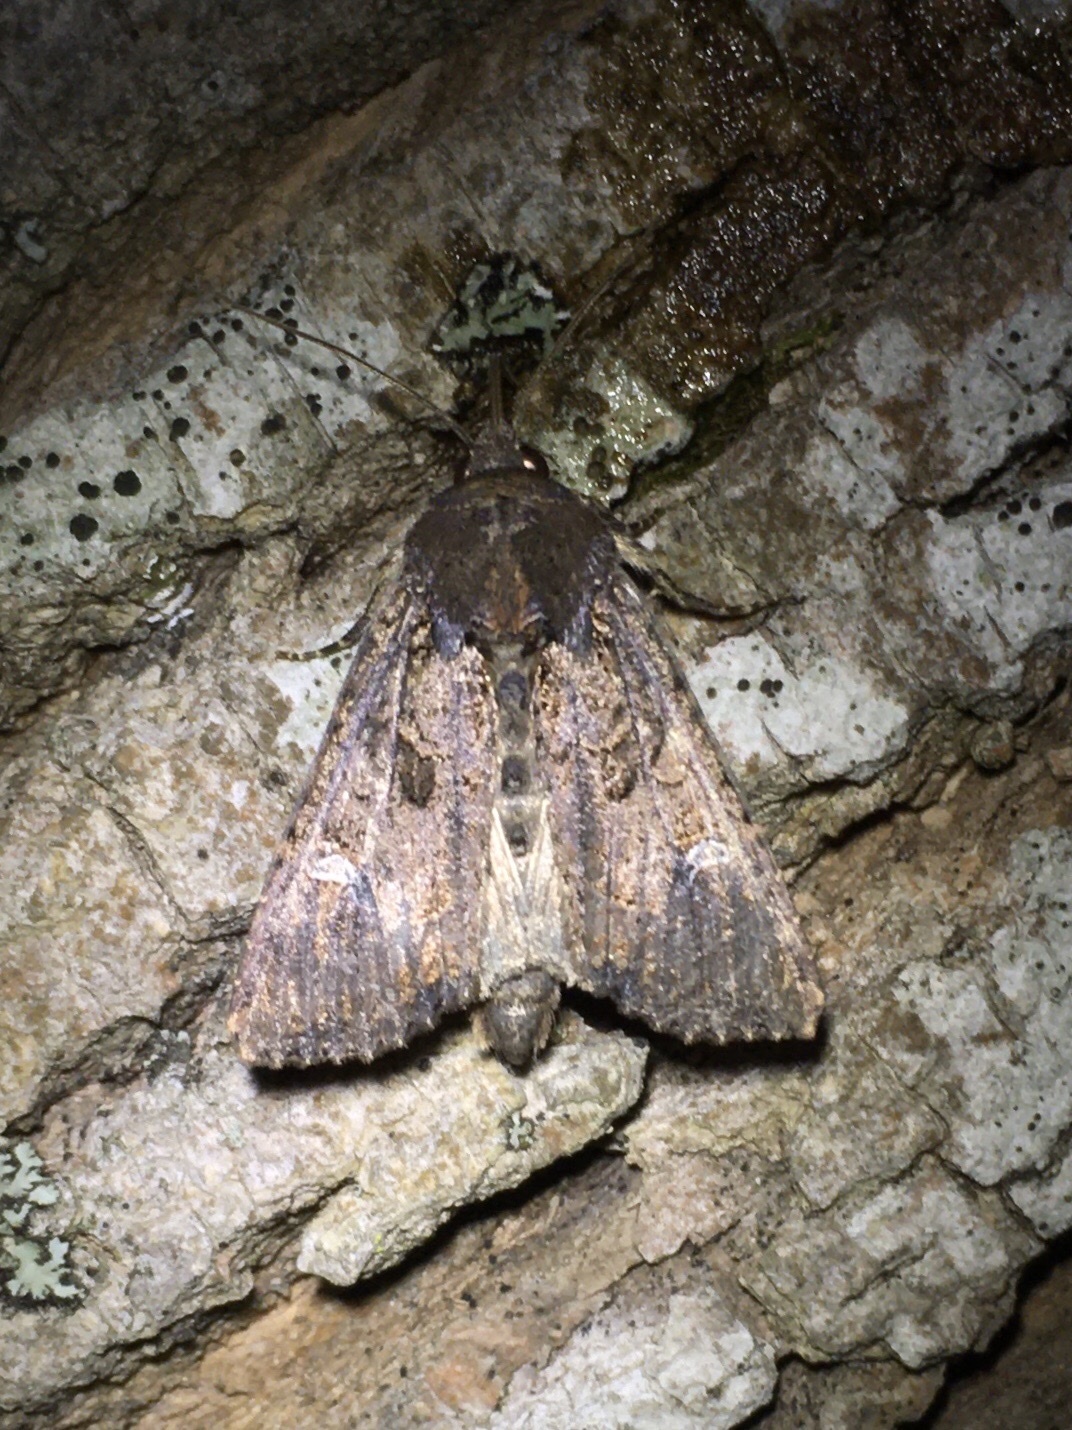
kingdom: Animalia
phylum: Arthropoda
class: Insecta
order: Lepidoptera
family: Noctuidae
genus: Helotropha
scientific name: Helotropha reniformis
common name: Kidney-spotted rustic moth
